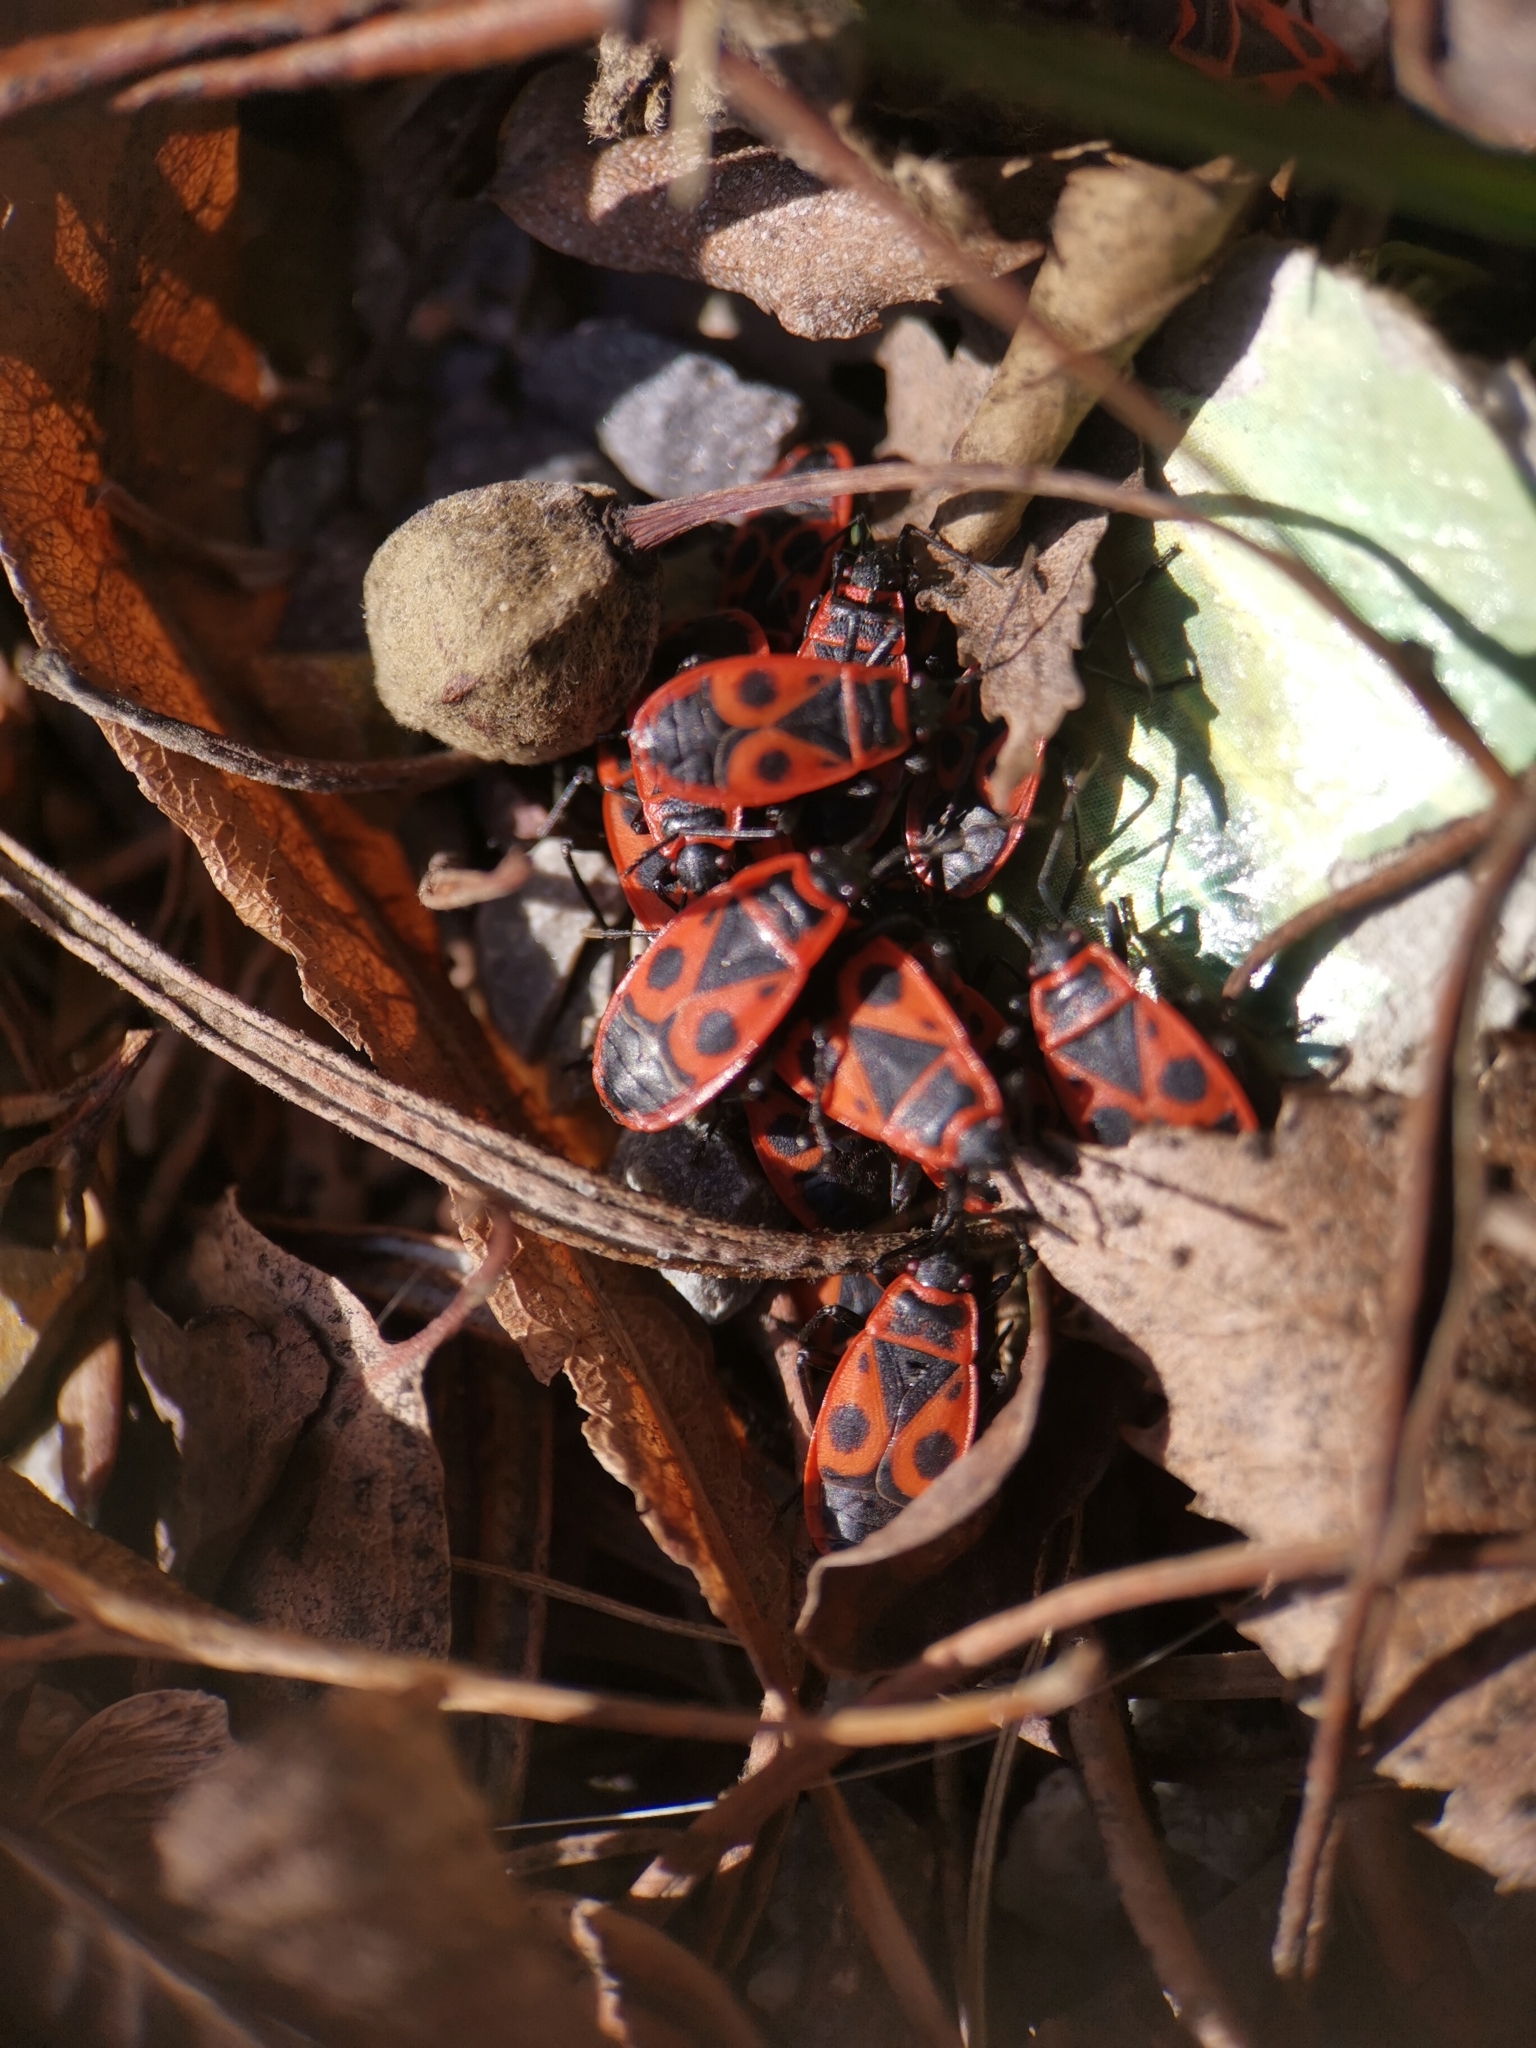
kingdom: Animalia
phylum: Arthropoda
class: Insecta
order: Hemiptera
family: Pyrrhocoridae
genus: Pyrrhocoris
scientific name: Pyrrhocoris apterus
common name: Firebug
